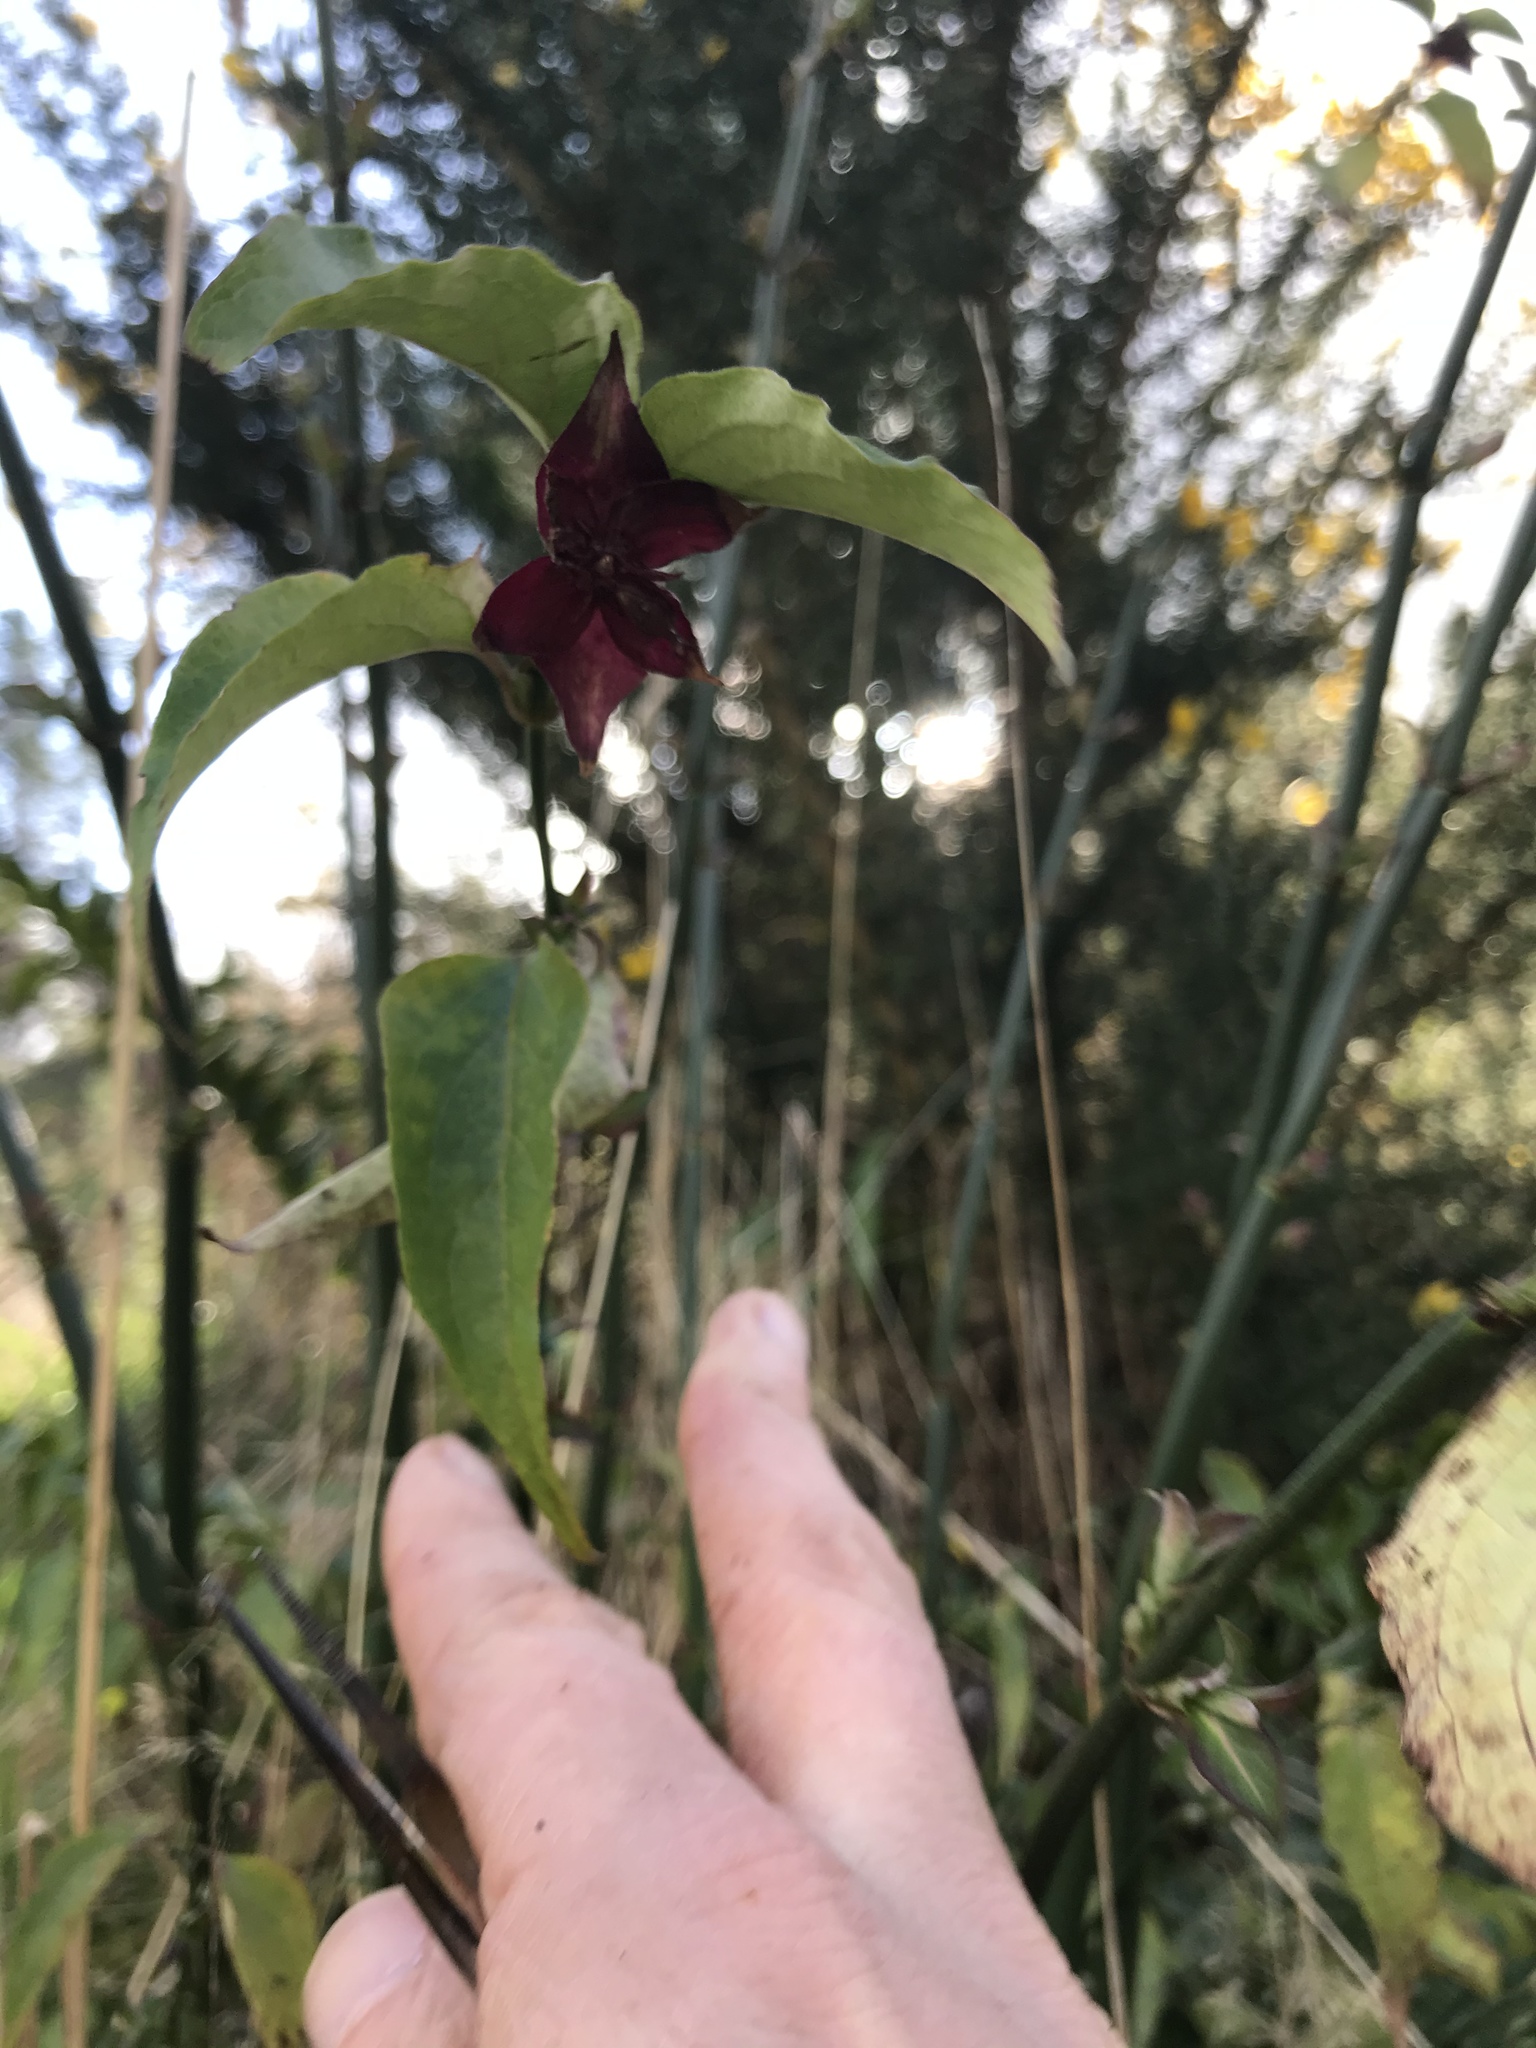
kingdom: Plantae
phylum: Tracheophyta
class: Magnoliopsida
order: Dipsacales
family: Caprifoliaceae
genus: Leycesteria
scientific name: Leycesteria formosa
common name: Himalayan honeysuckle
